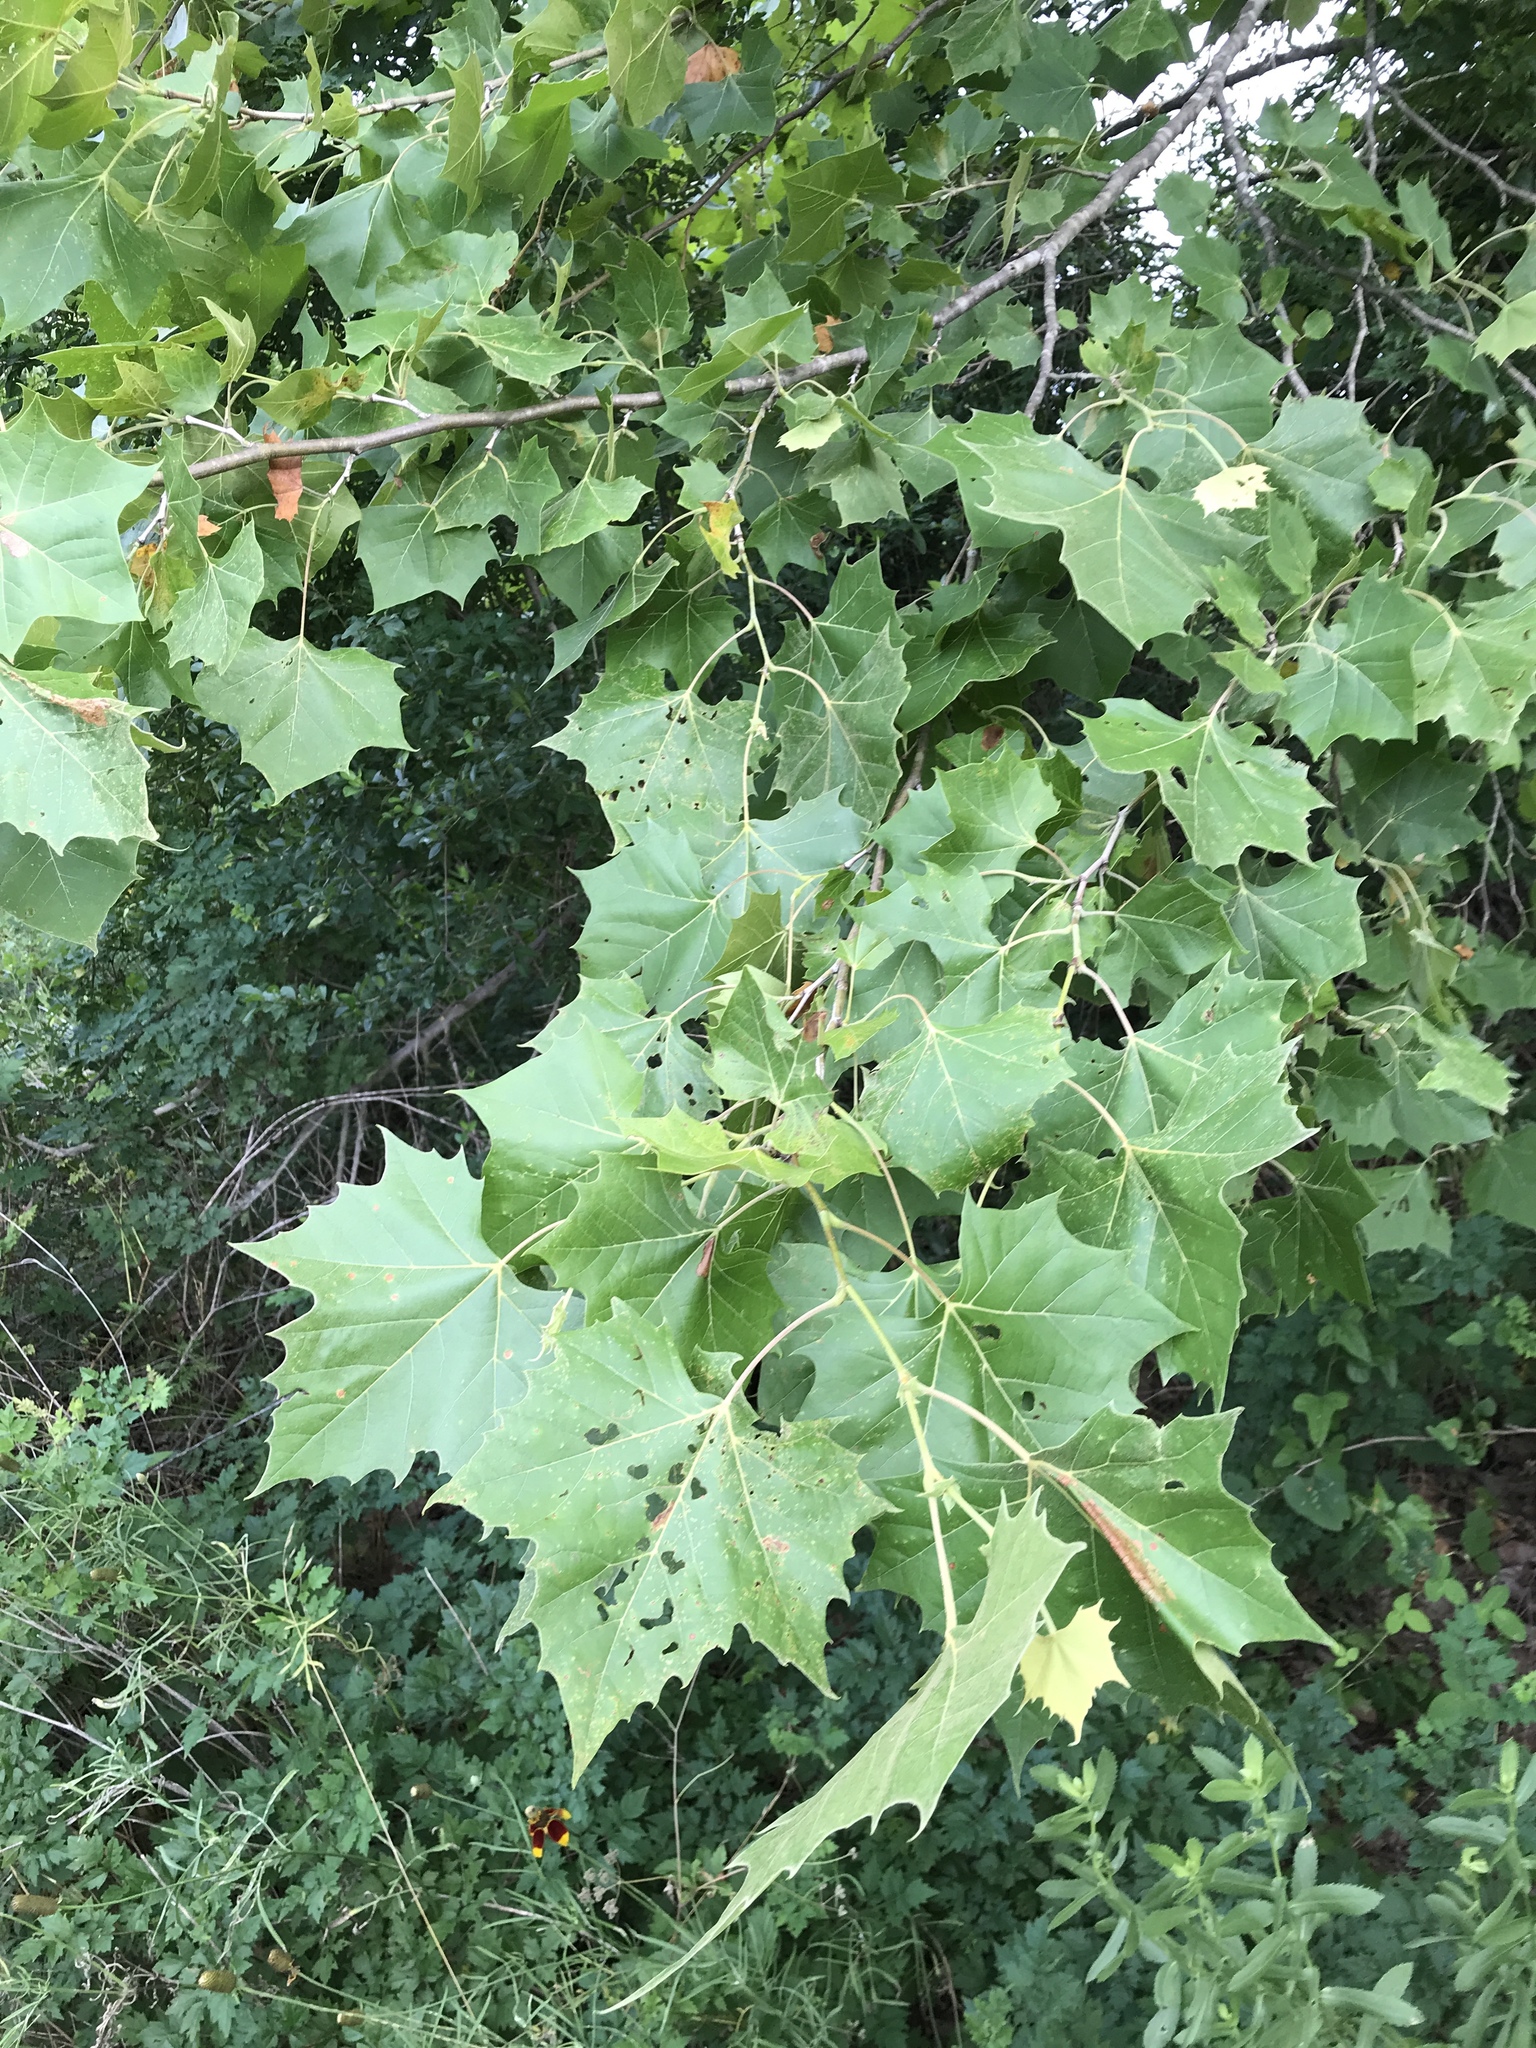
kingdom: Plantae
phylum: Tracheophyta
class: Magnoliopsida
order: Proteales
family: Platanaceae
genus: Platanus
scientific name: Platanus occidentalis
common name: American sycamore
